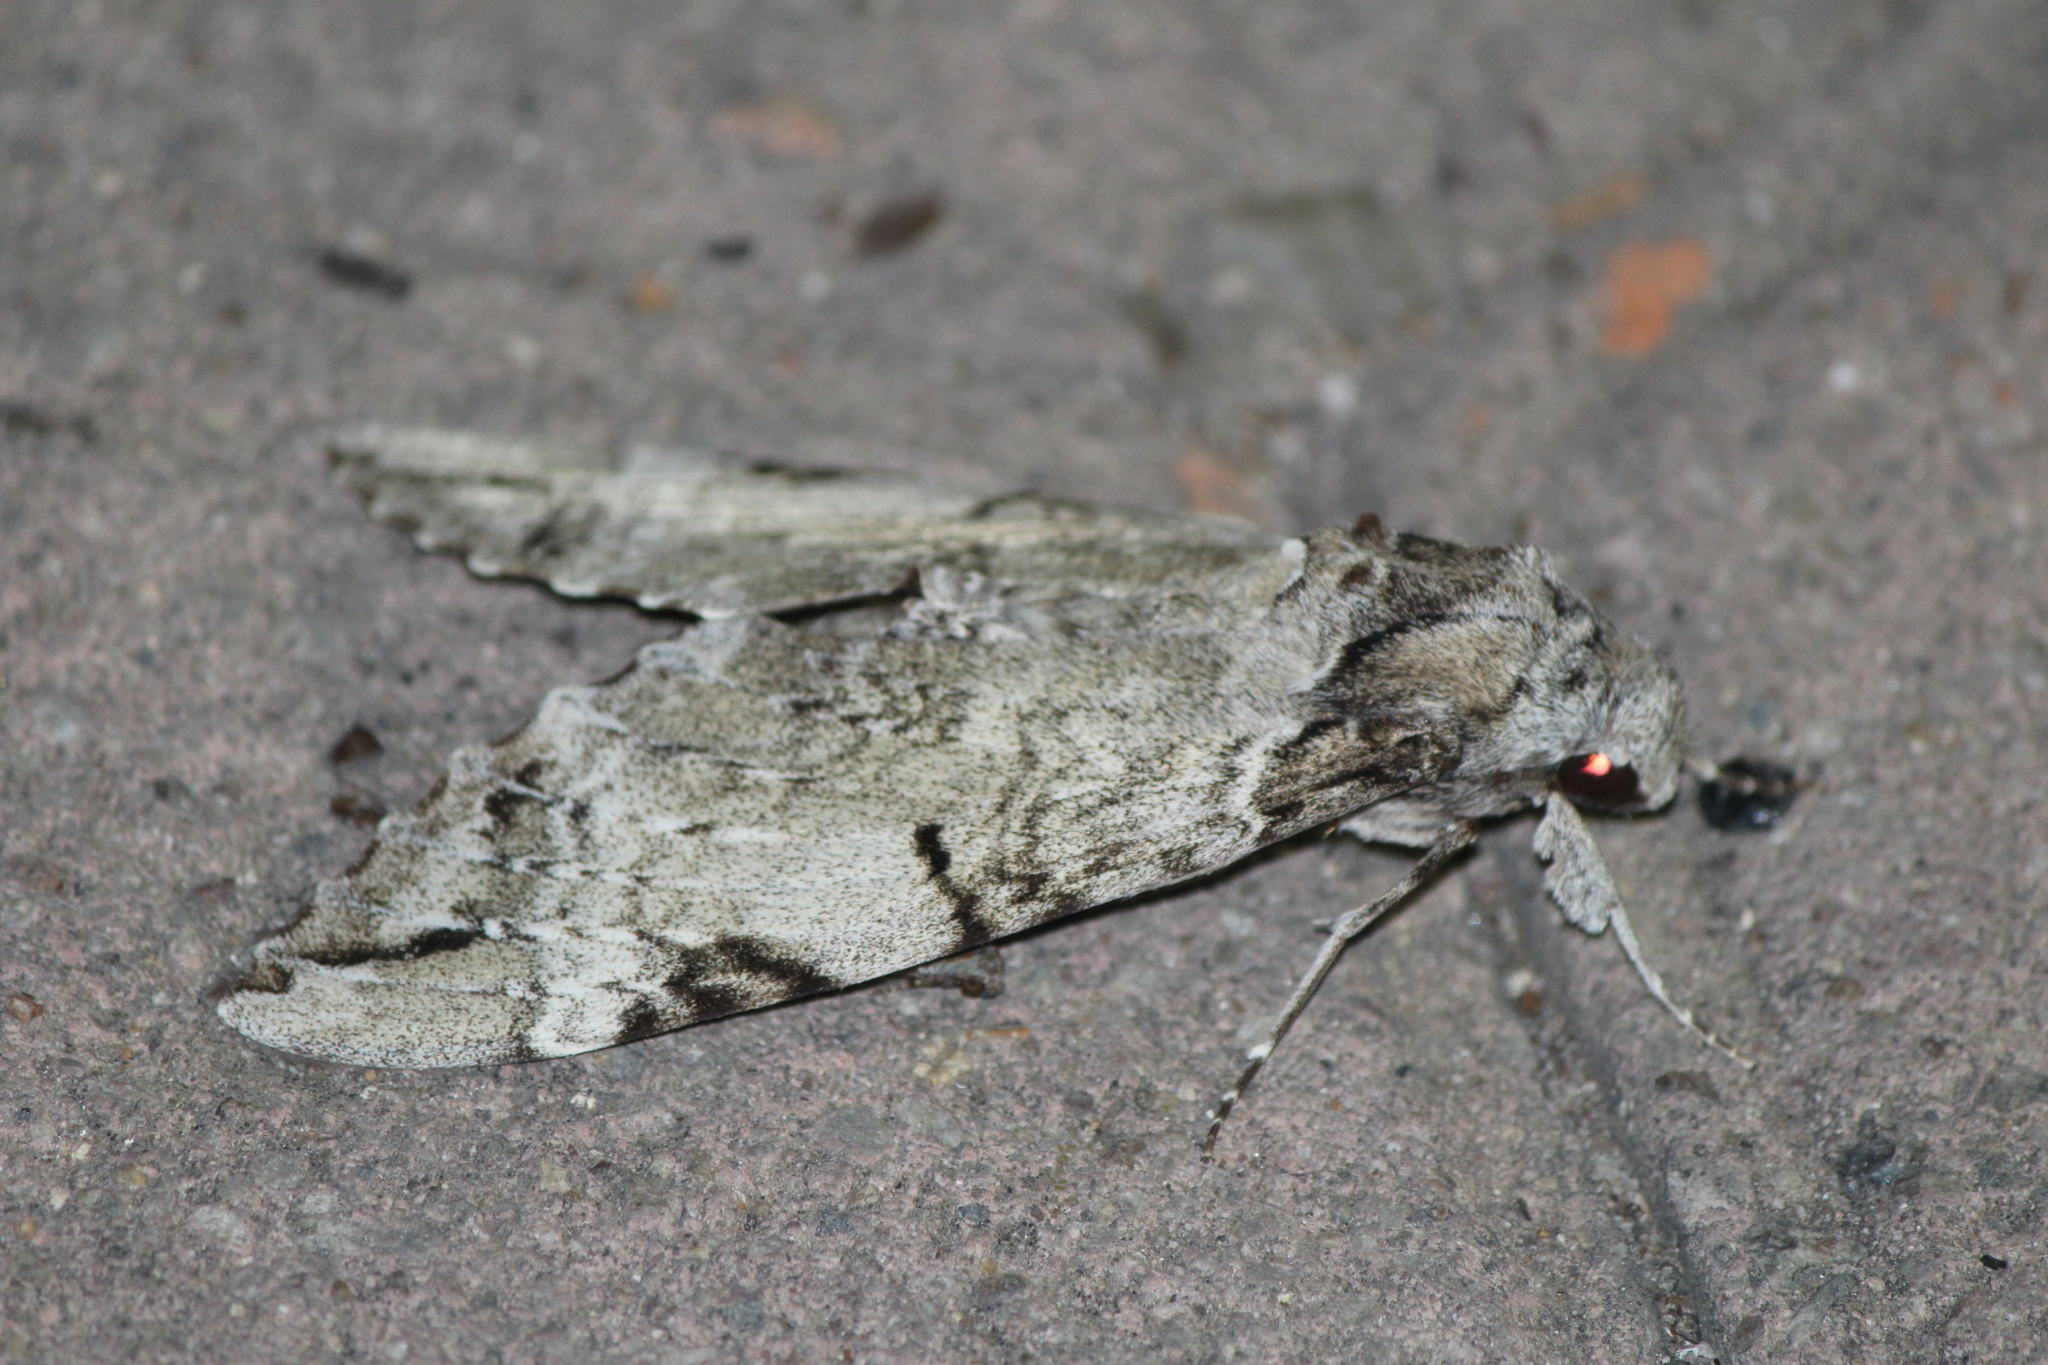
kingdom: Animalia
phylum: Arthropoda
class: Insecta
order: Lepidoptera
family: Sphingidae
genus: Pseudosphinx
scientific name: Pseudosphinx tetrio
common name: Tetrio sphinx
